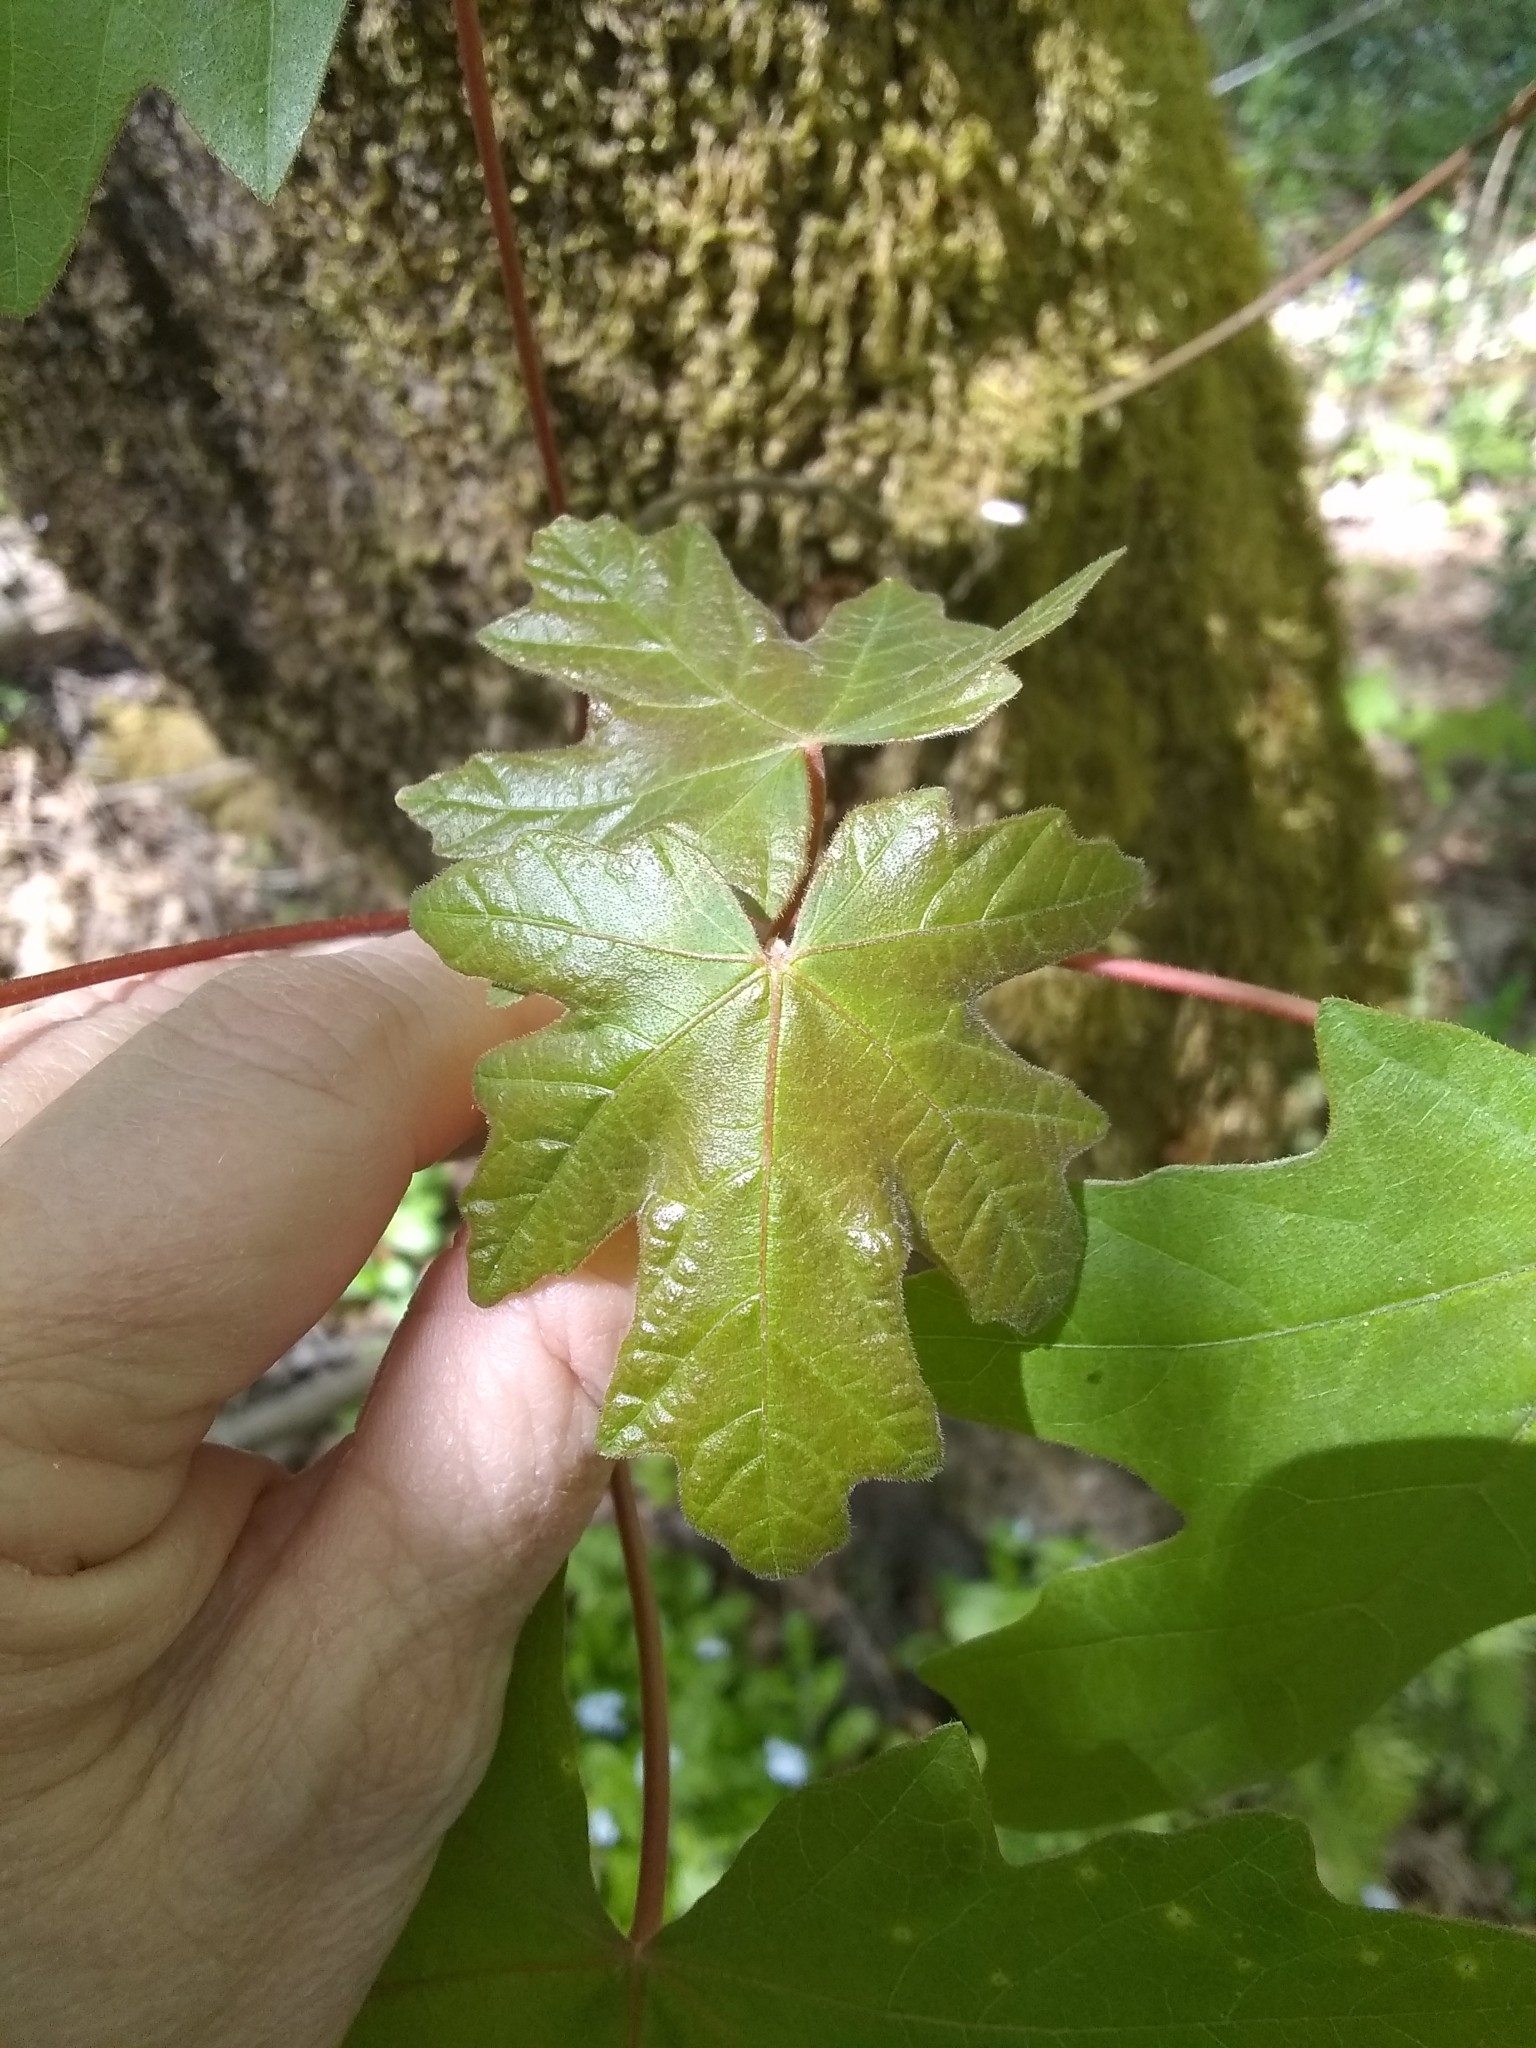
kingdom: Plantae
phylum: Tracheophyta
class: Magnoliopsida
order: Sapindales
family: Sapindaceae
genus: Acer
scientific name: Acer macrophyllum
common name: Oregon maple
